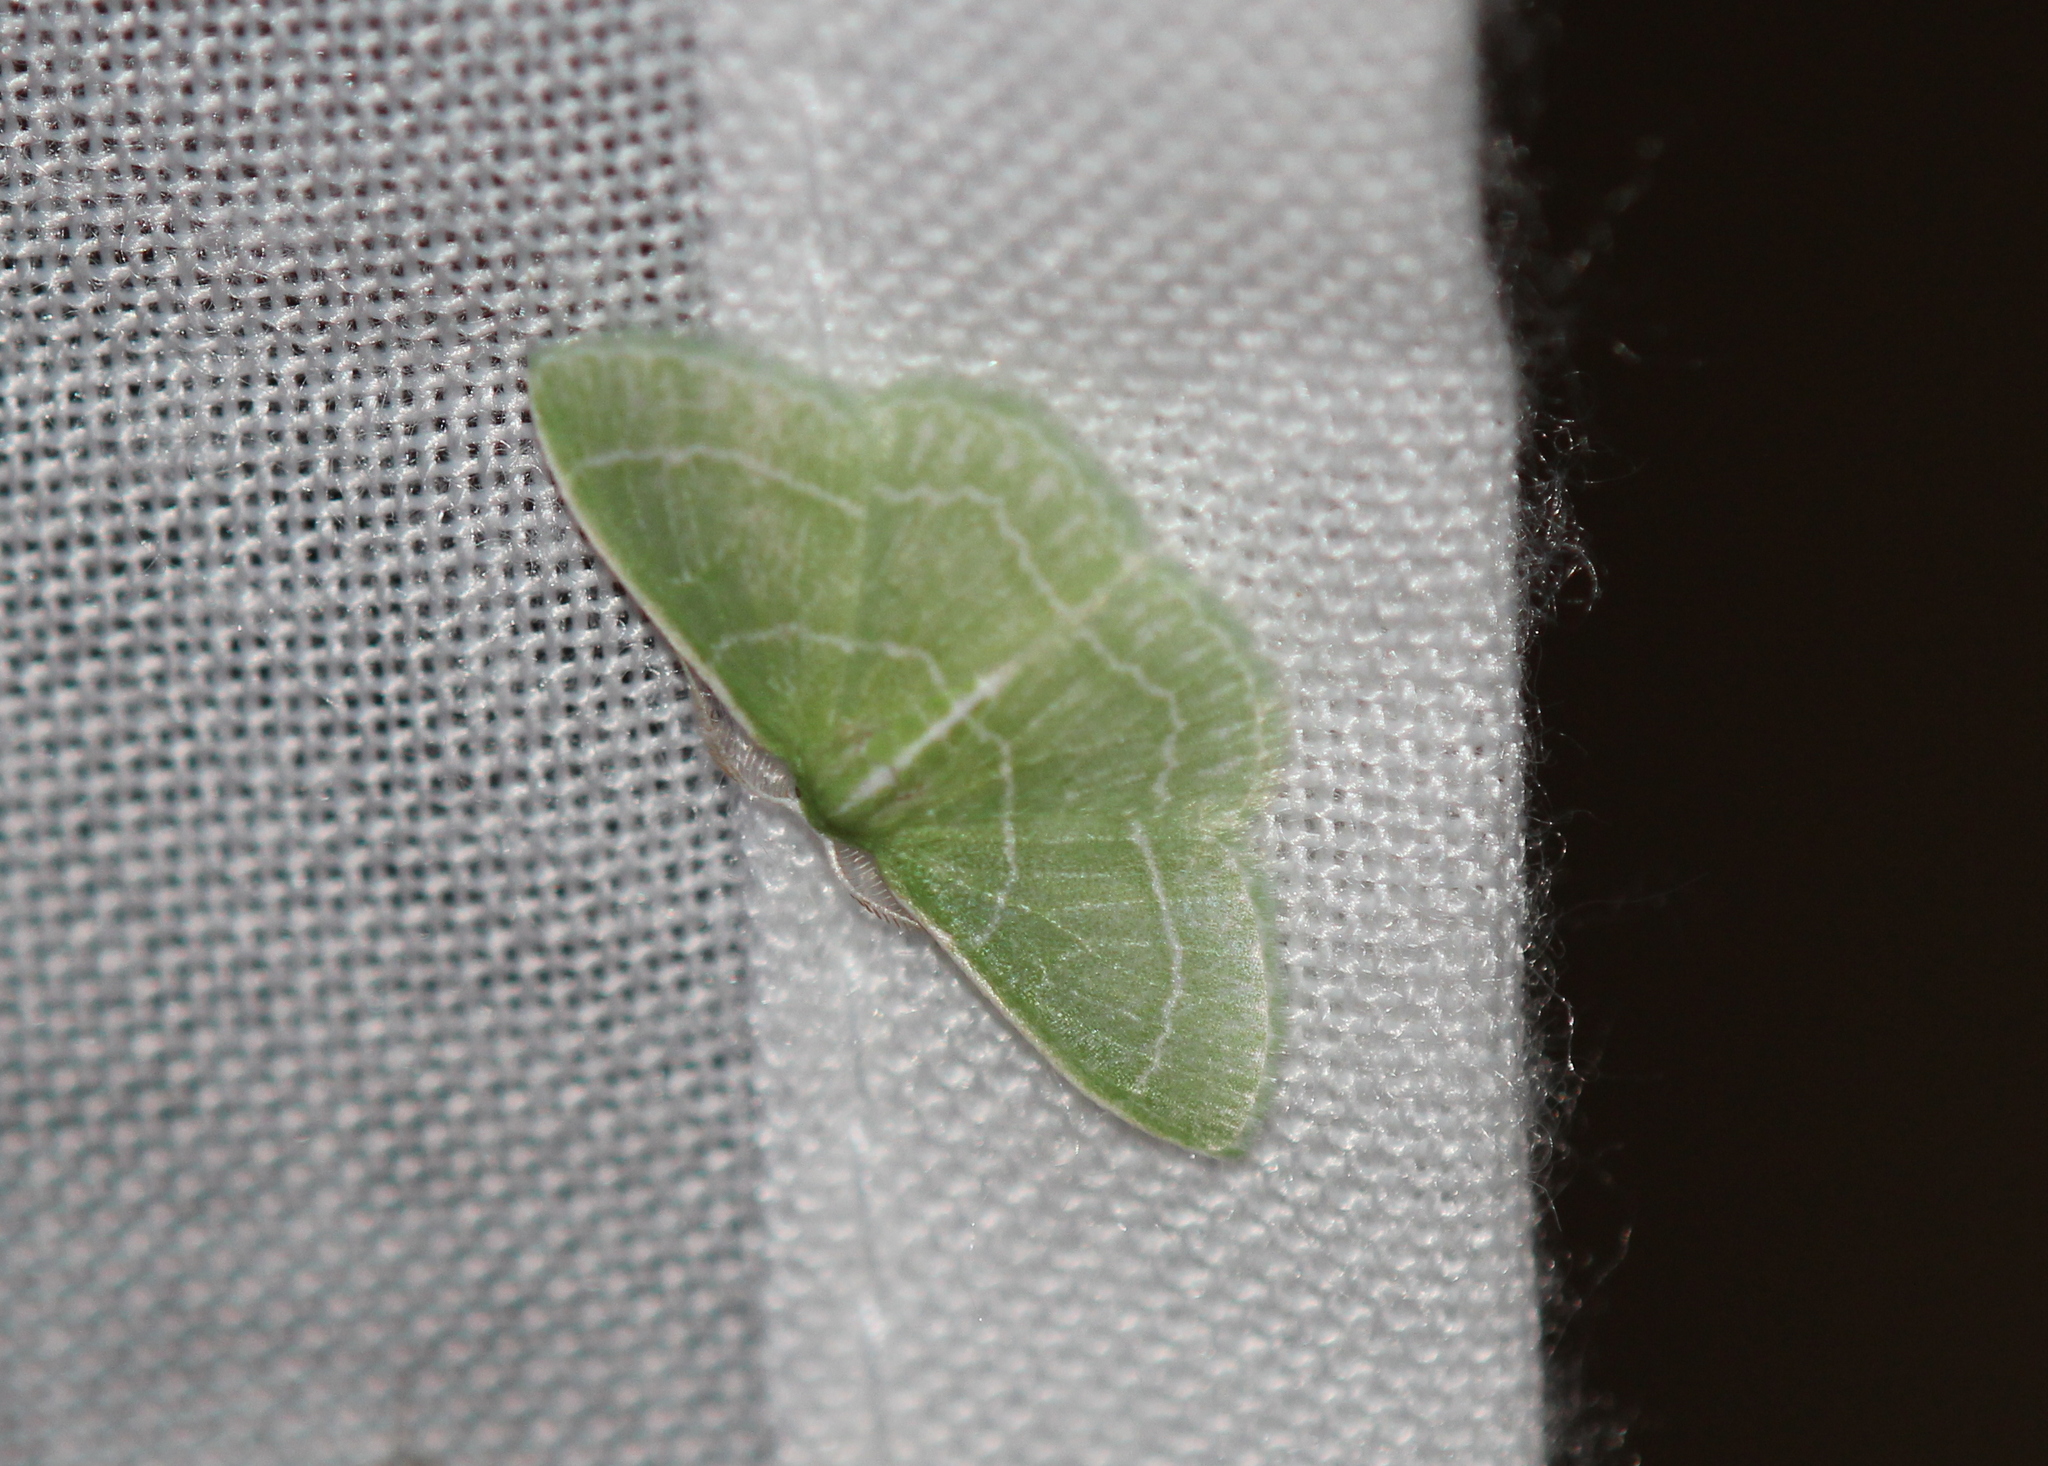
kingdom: Animalia
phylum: Arthropoda
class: Insecta
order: Lepidoptera
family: Geometridae
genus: Synchlora
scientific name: Synchlora aerata
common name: Wavy-lined emerald
